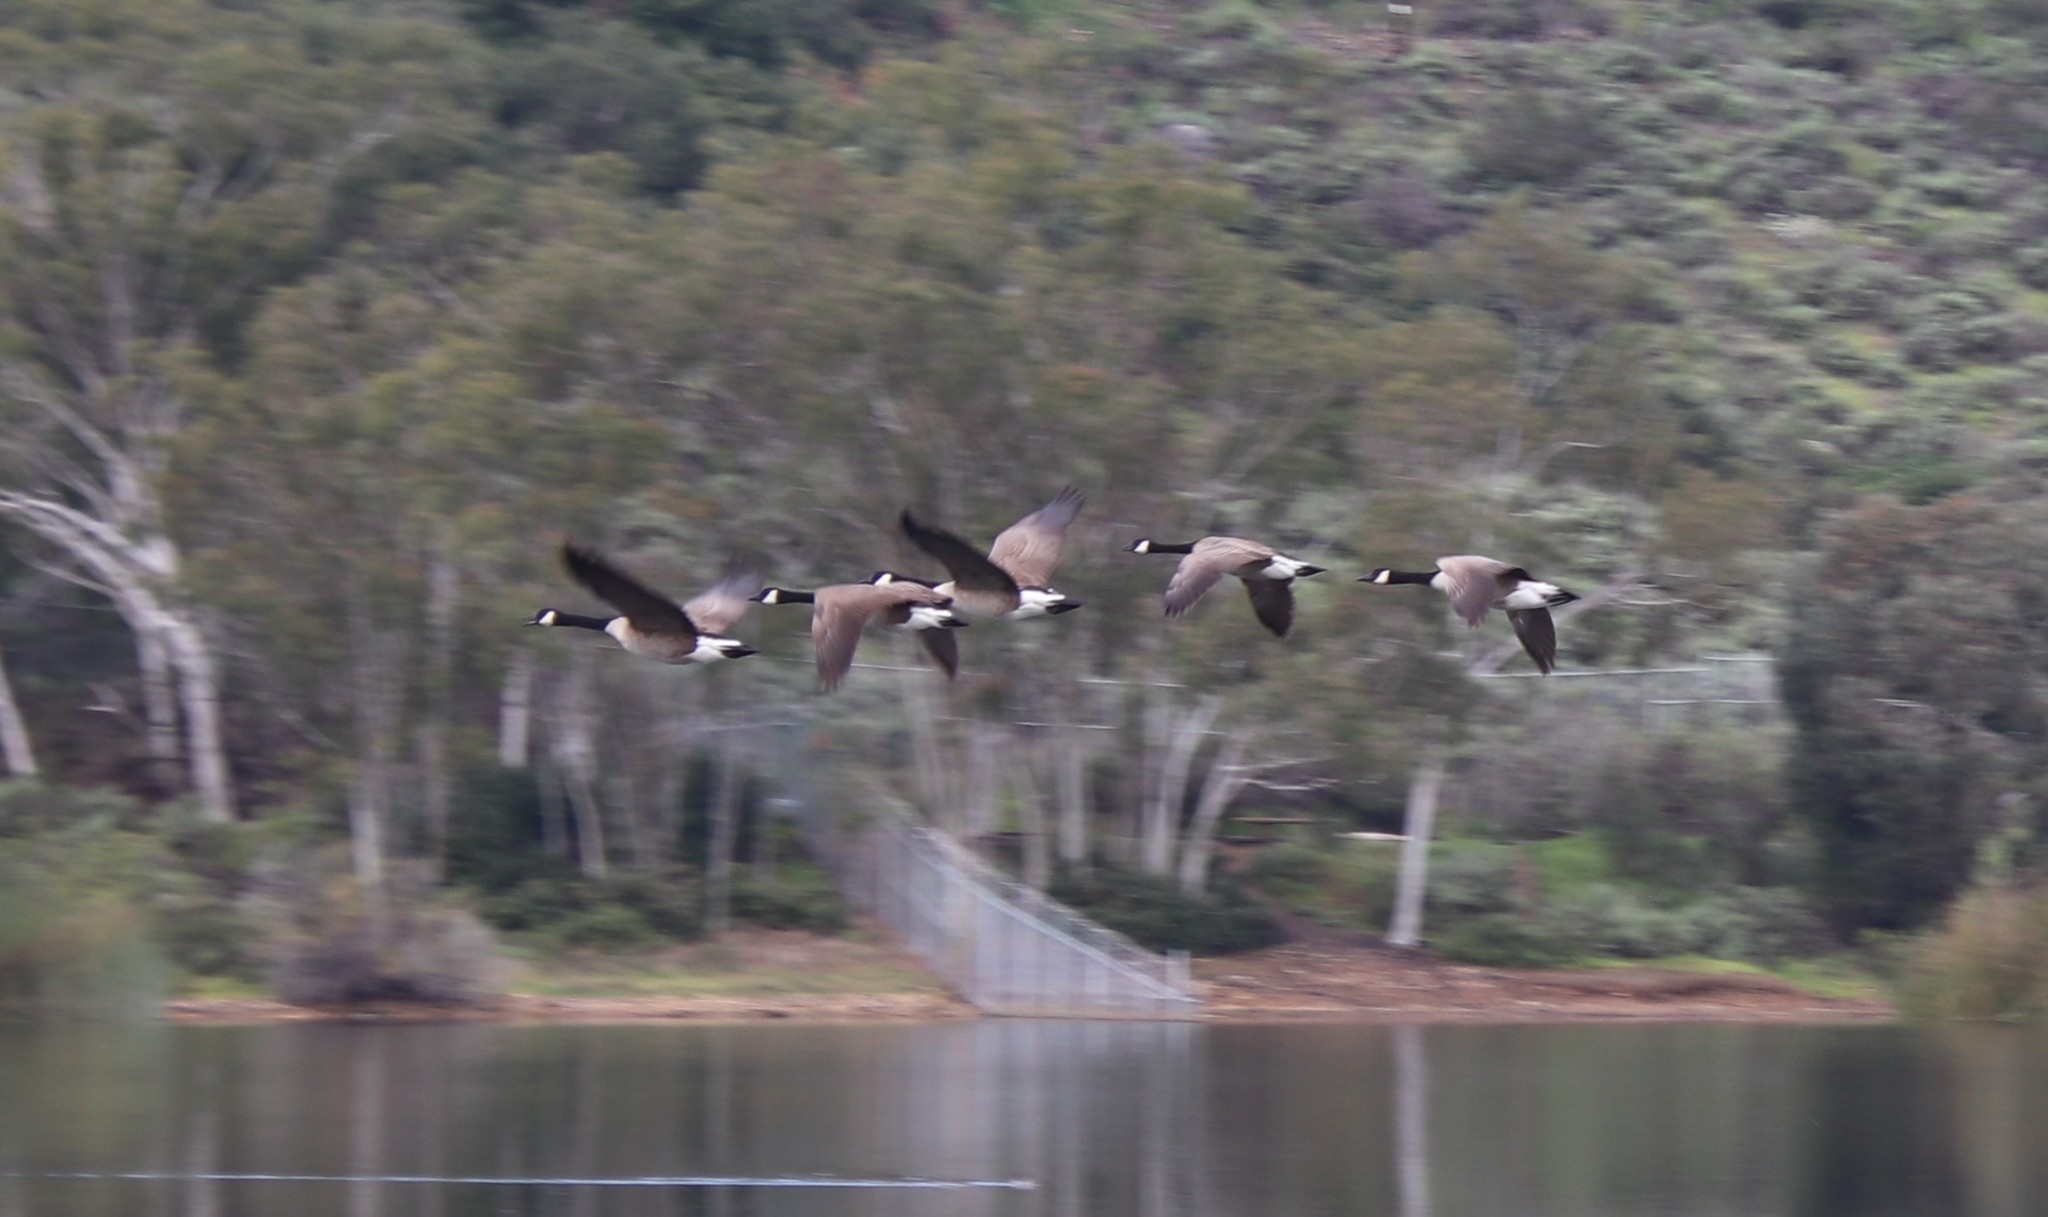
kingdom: Animalia
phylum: Chordata
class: Aves
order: Anseriformes
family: Anatidae
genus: Branta
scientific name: Branta canadensis
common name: Canada goose
